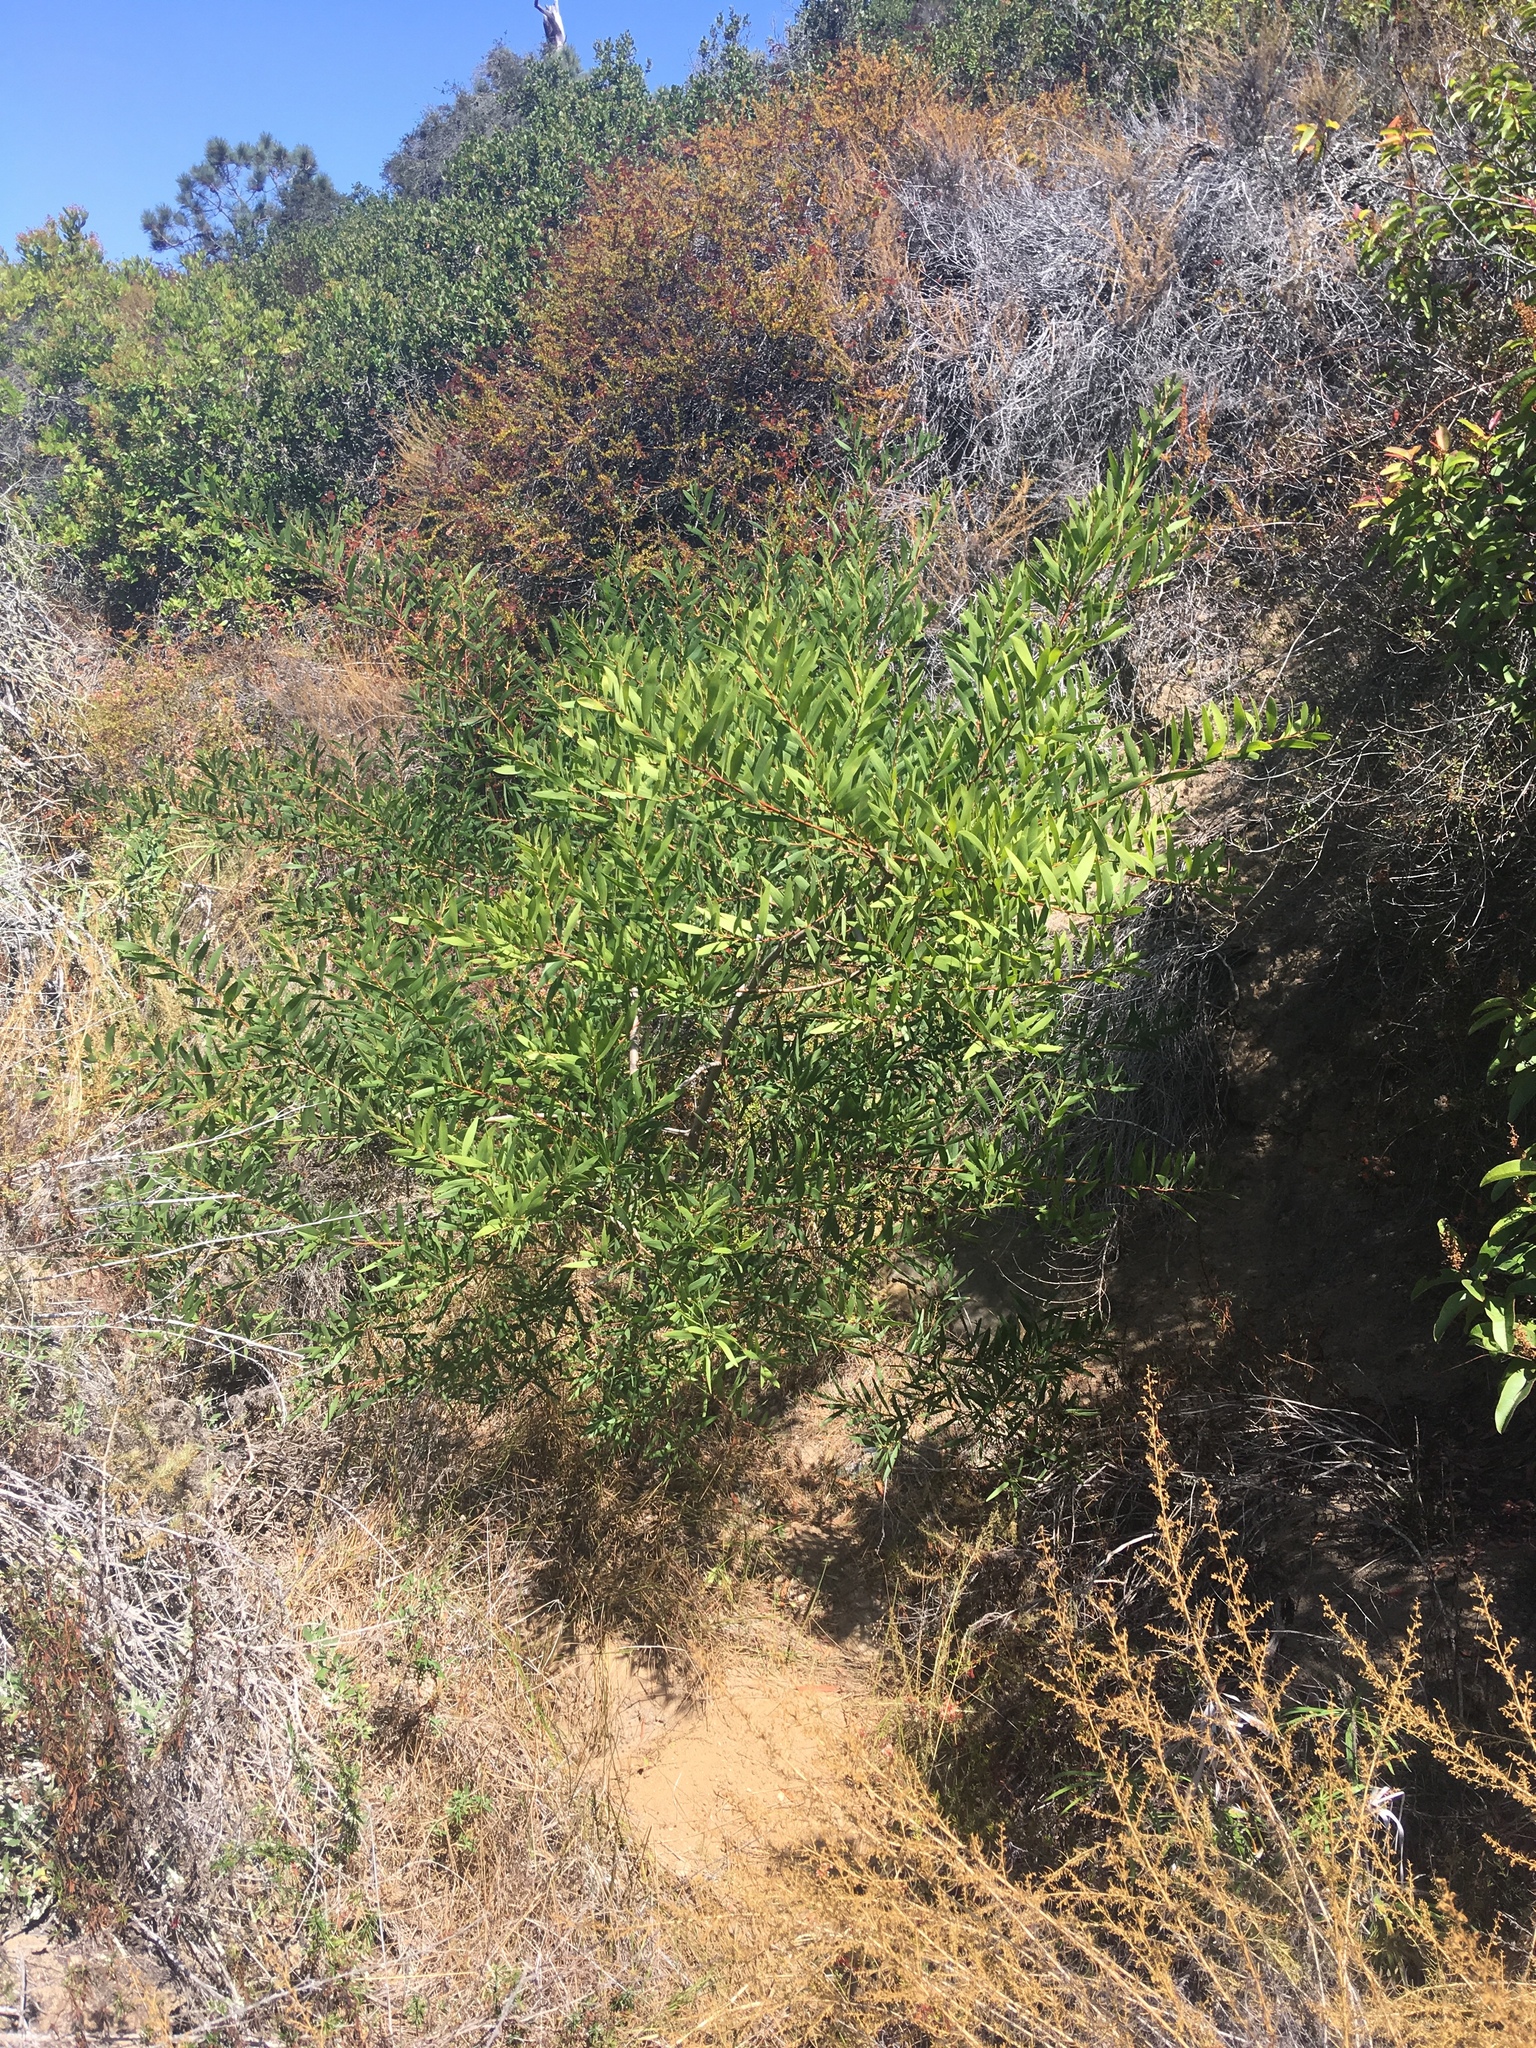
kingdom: Plantae
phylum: Tracheophyta
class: Magnoliopsida
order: Fabales
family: Fabaceae
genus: Acacia
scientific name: Acacia longifolia
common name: Sydney golden wattle
